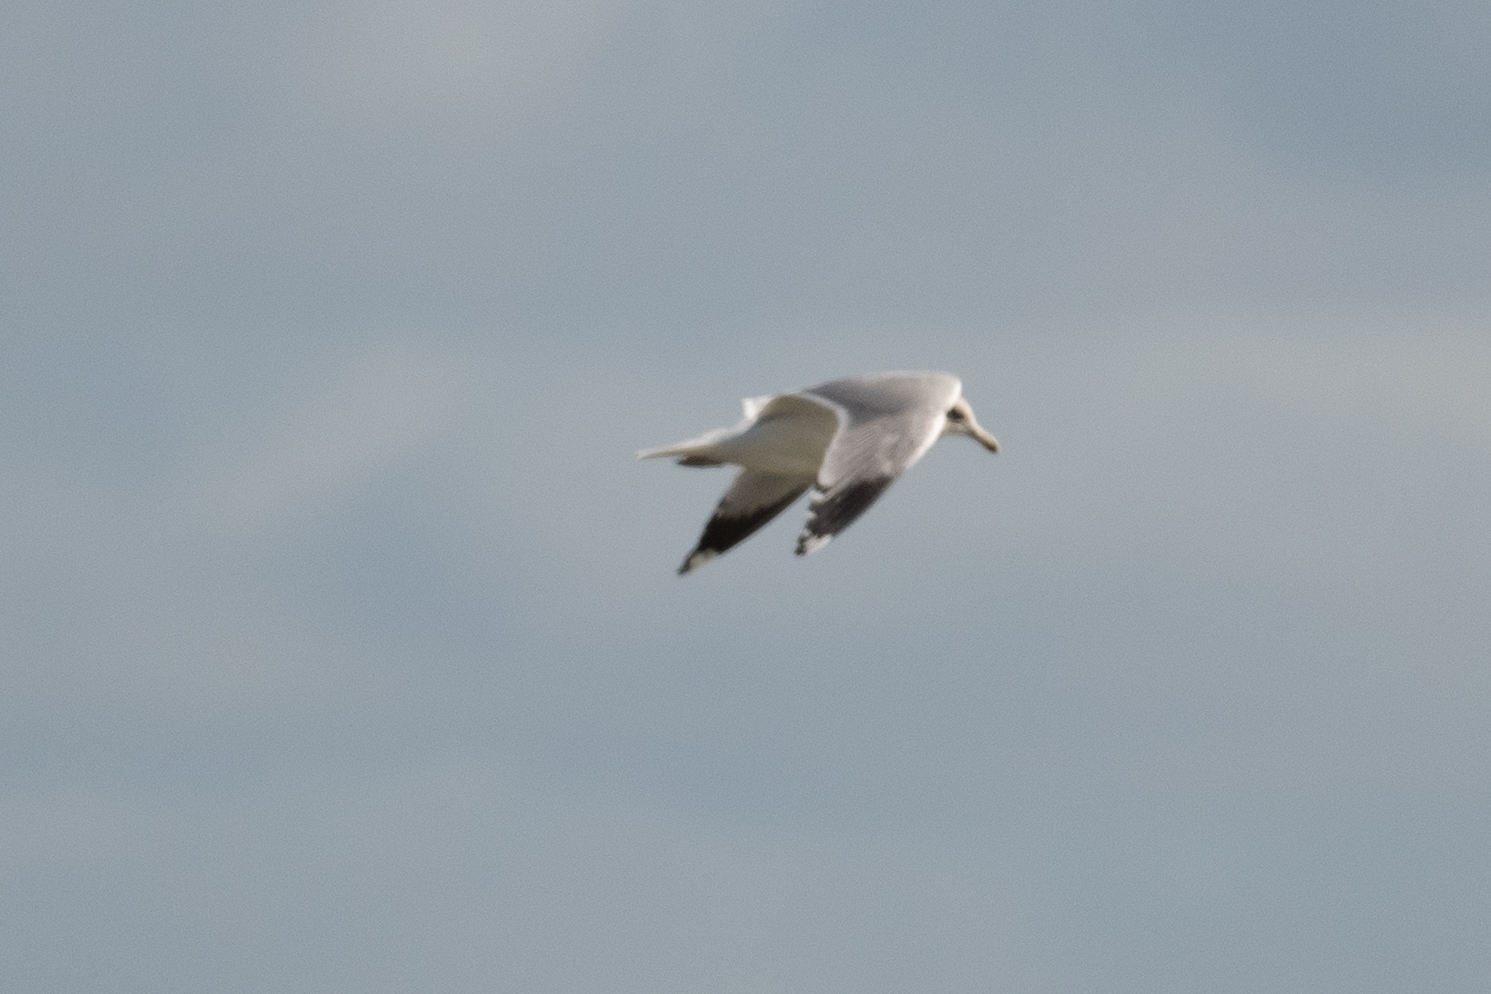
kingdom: Animalia
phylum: Chordata
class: Aves
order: Charadriiformes
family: Laridae
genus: Larus
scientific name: Larus californicus
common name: California gull
